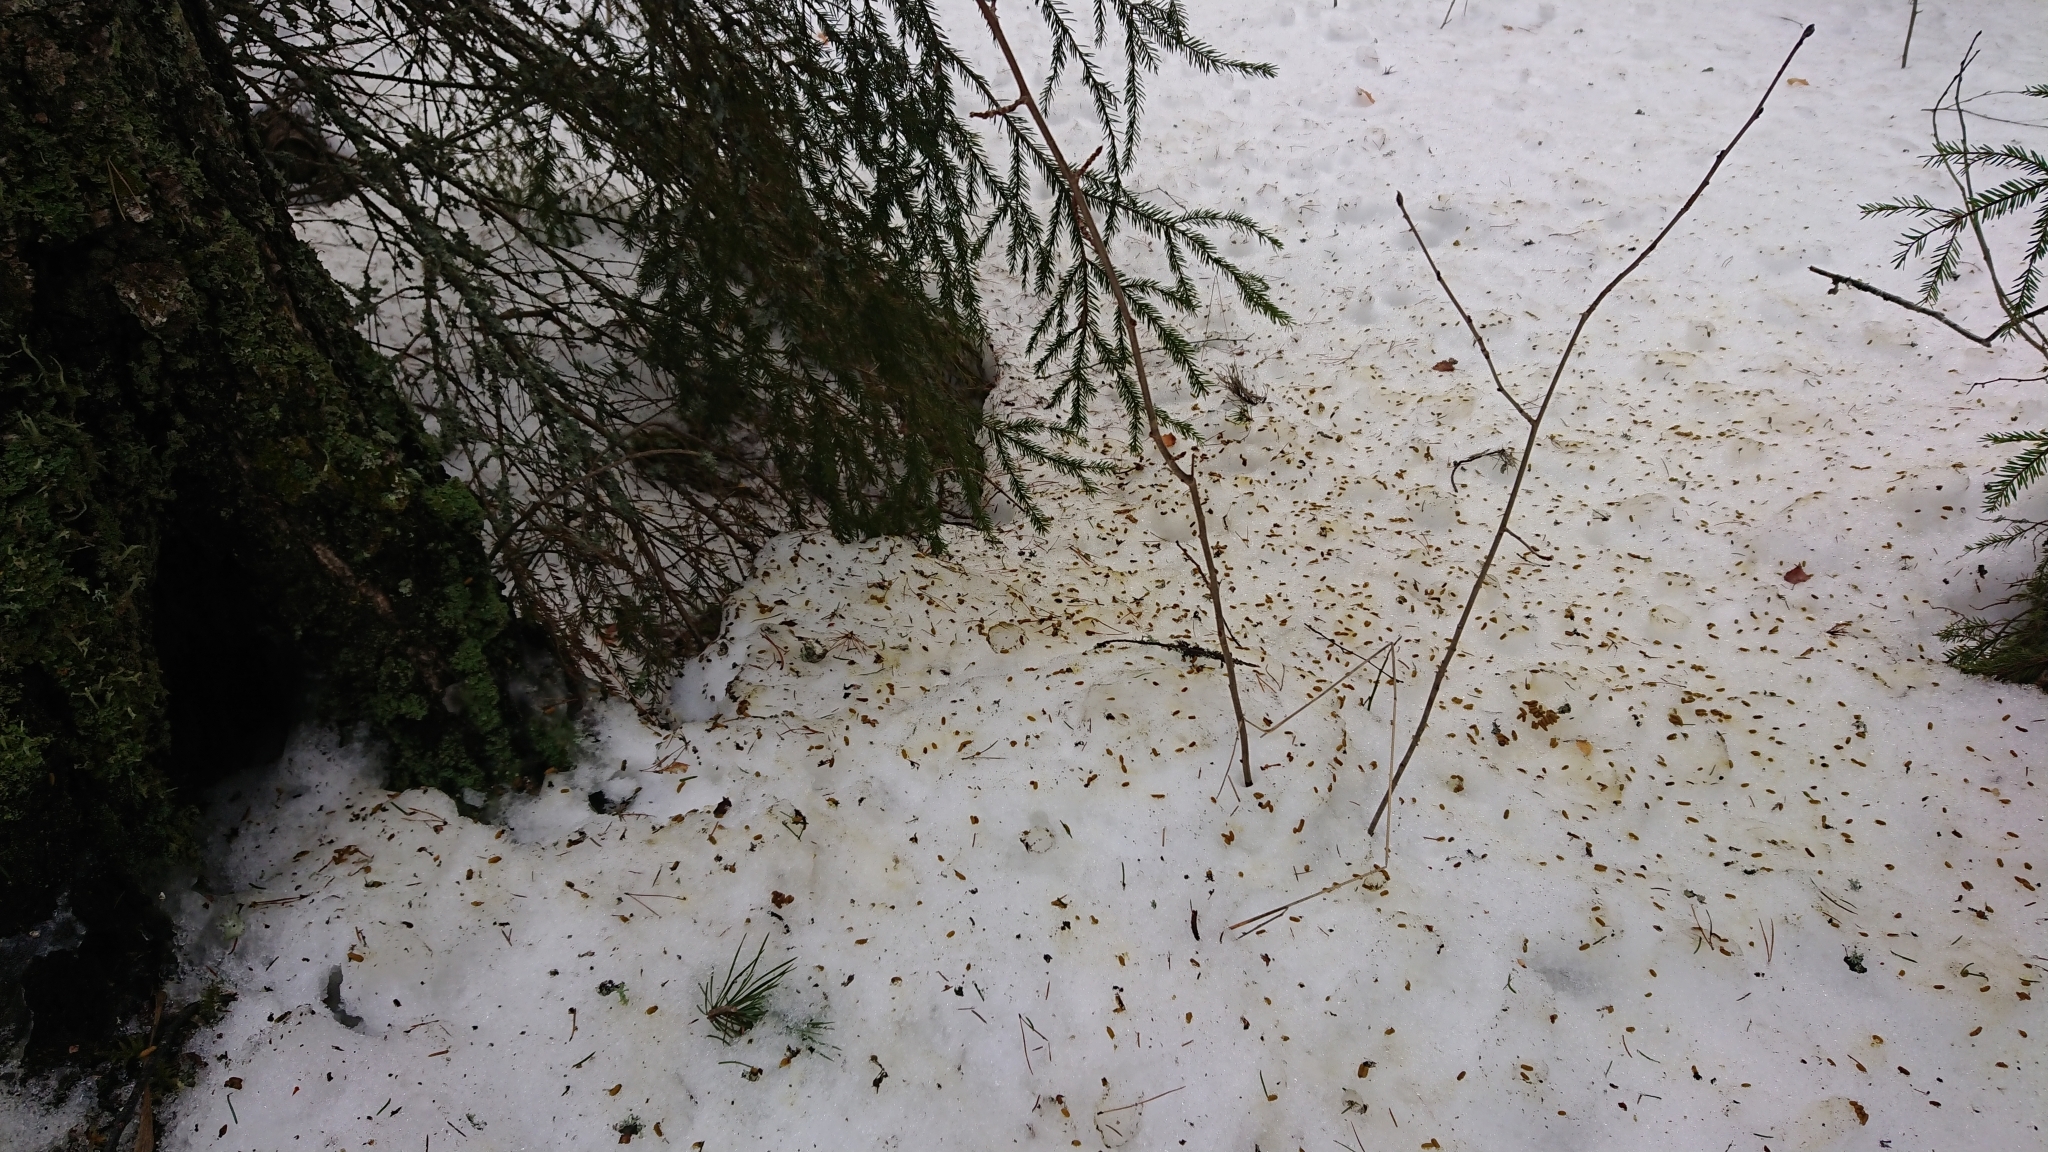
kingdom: Animalia
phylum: Chordata
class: Mammalia
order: Rodentia
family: Sciuridae
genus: Pteromys
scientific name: Pteromys volans
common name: Siberian flying squirrel
